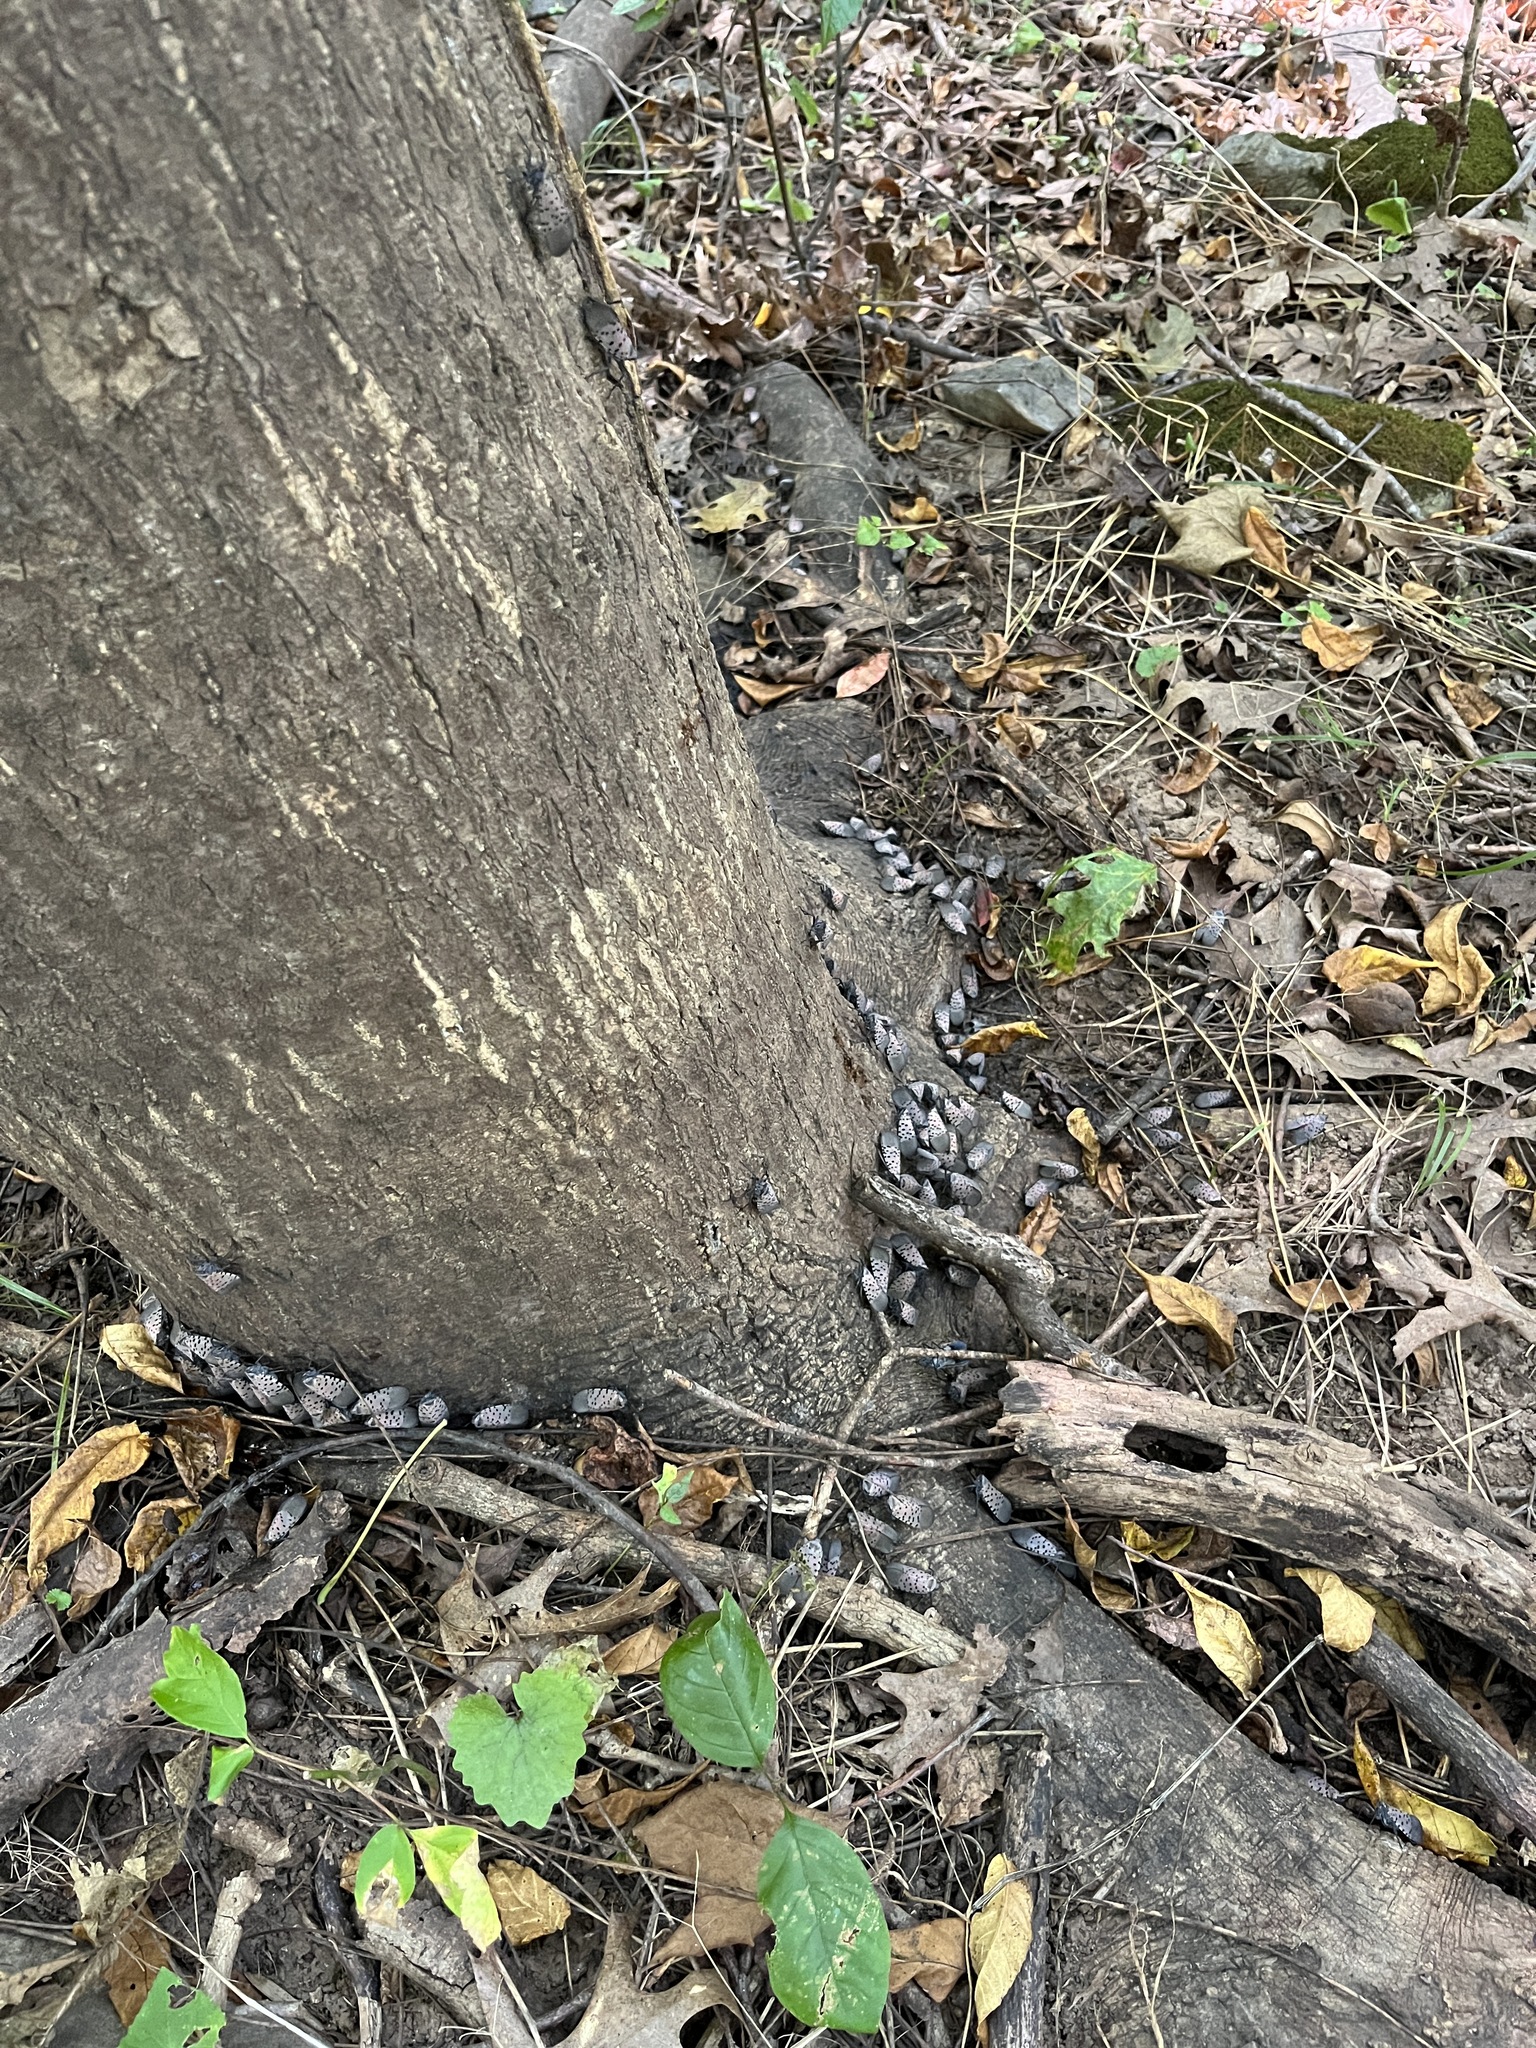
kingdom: Animalia
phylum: Arthropoda
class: Insecta
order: Hemiptera
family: Fulgoridae
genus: Lycorma
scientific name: Lycorma delicatula
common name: Spotted lanternfly
